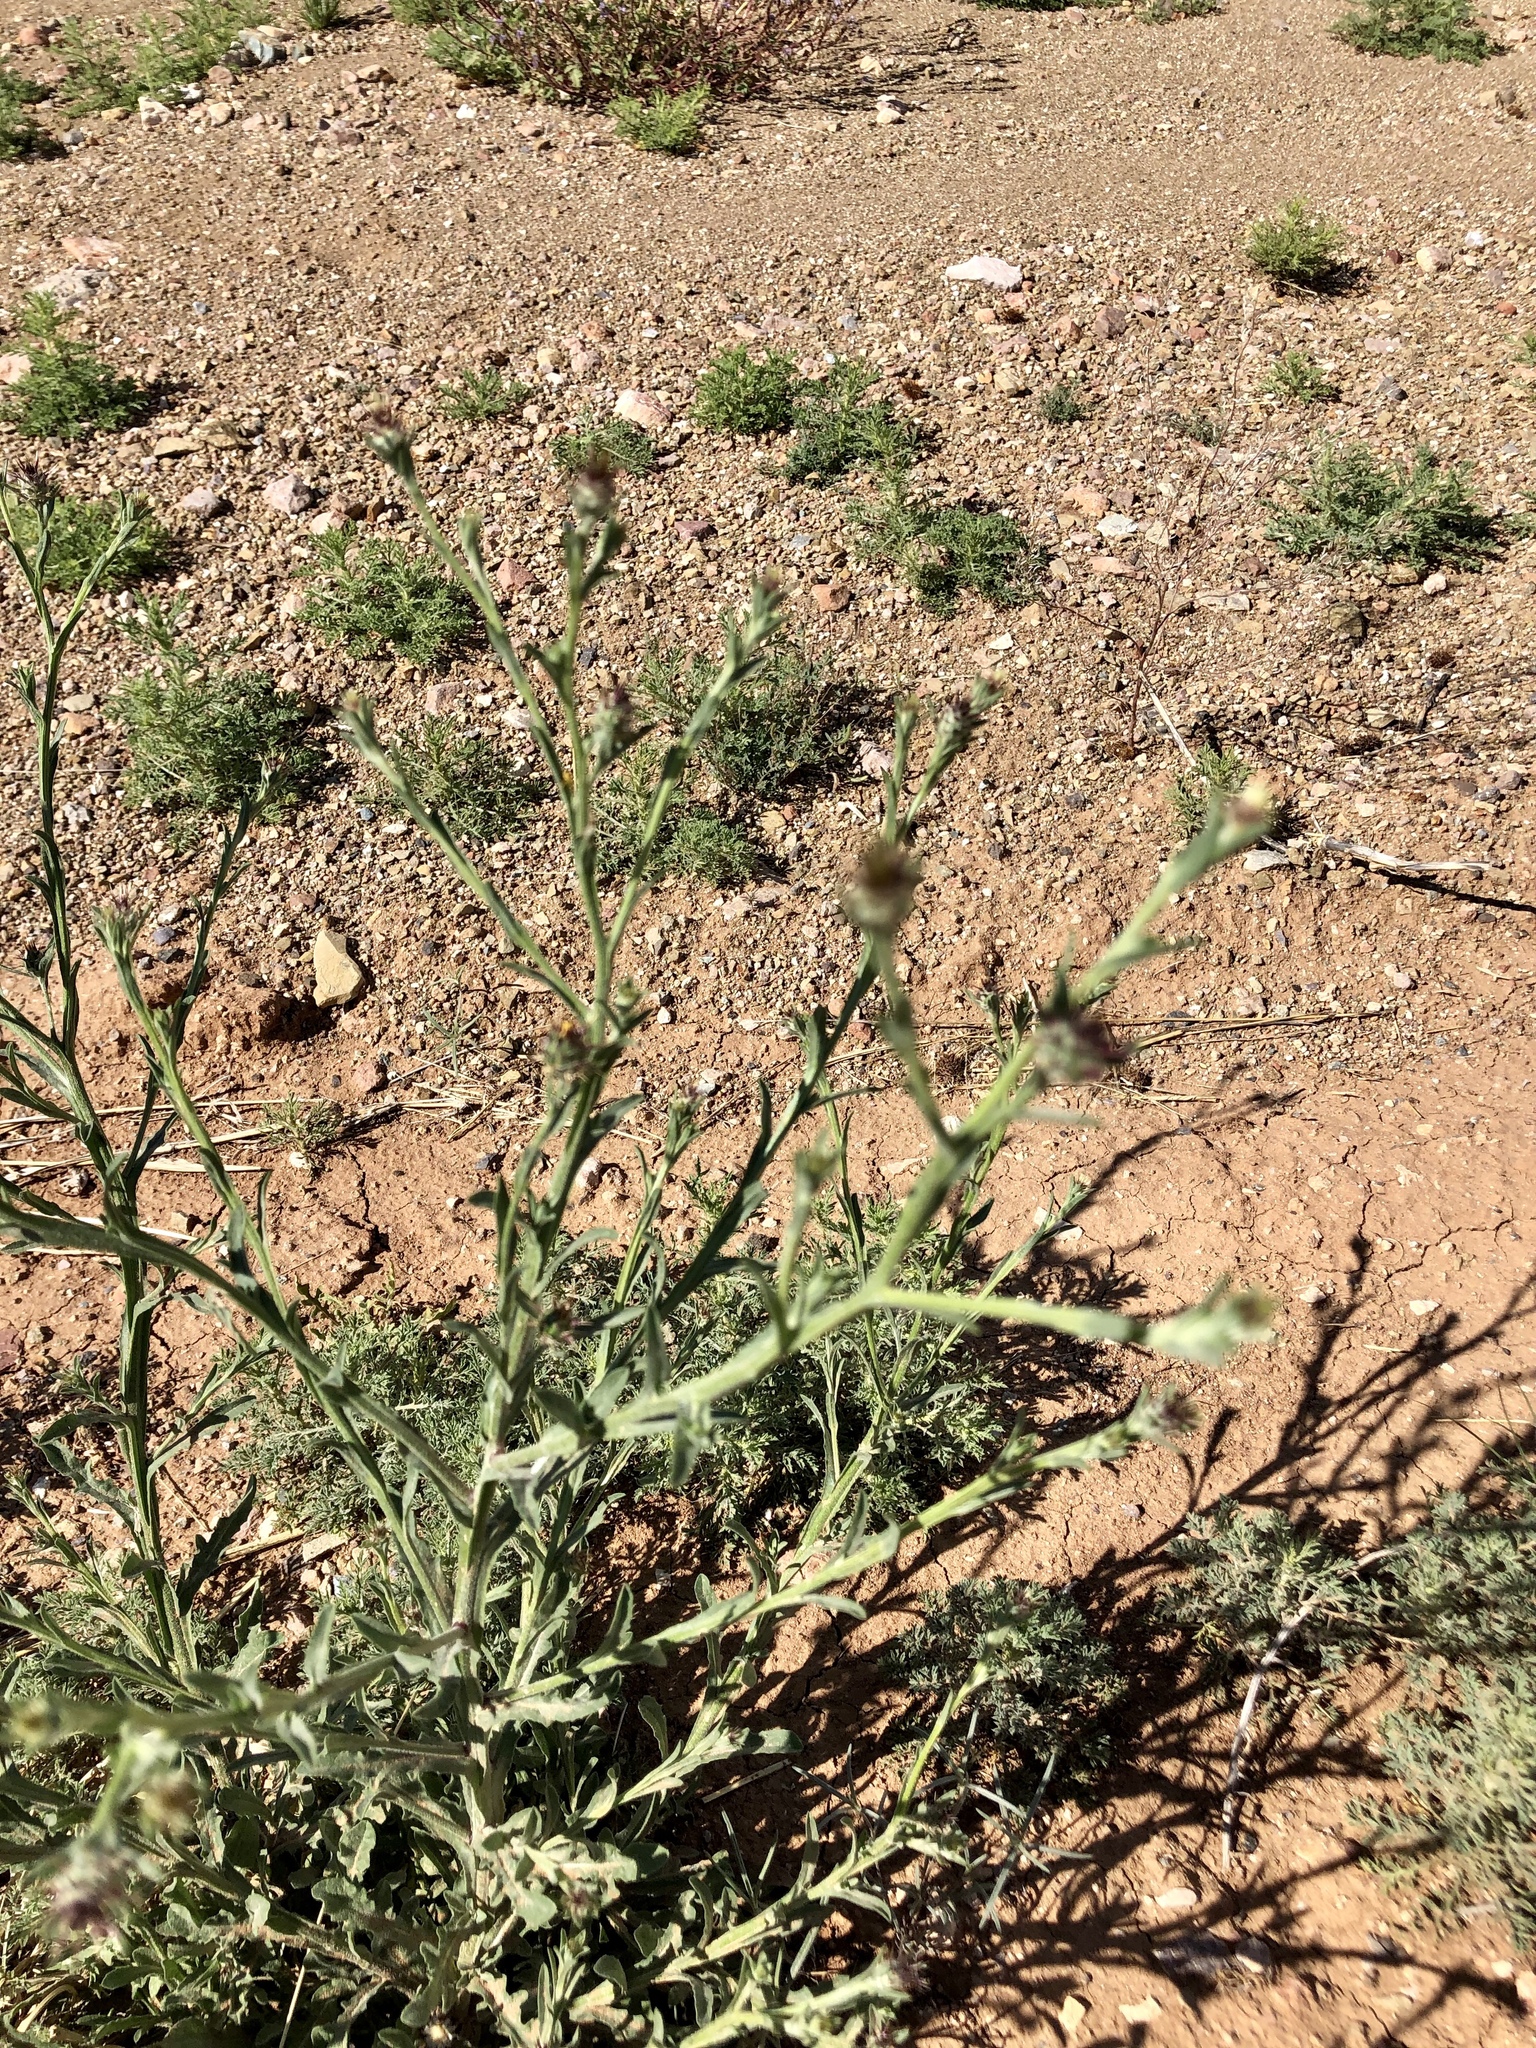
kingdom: Plantae
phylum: Tracheophyta
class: Magnoliopsida
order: Asterales
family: Asteraceae
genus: Centaurea
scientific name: Centaurea melitensis
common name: Maltese star-thistle
